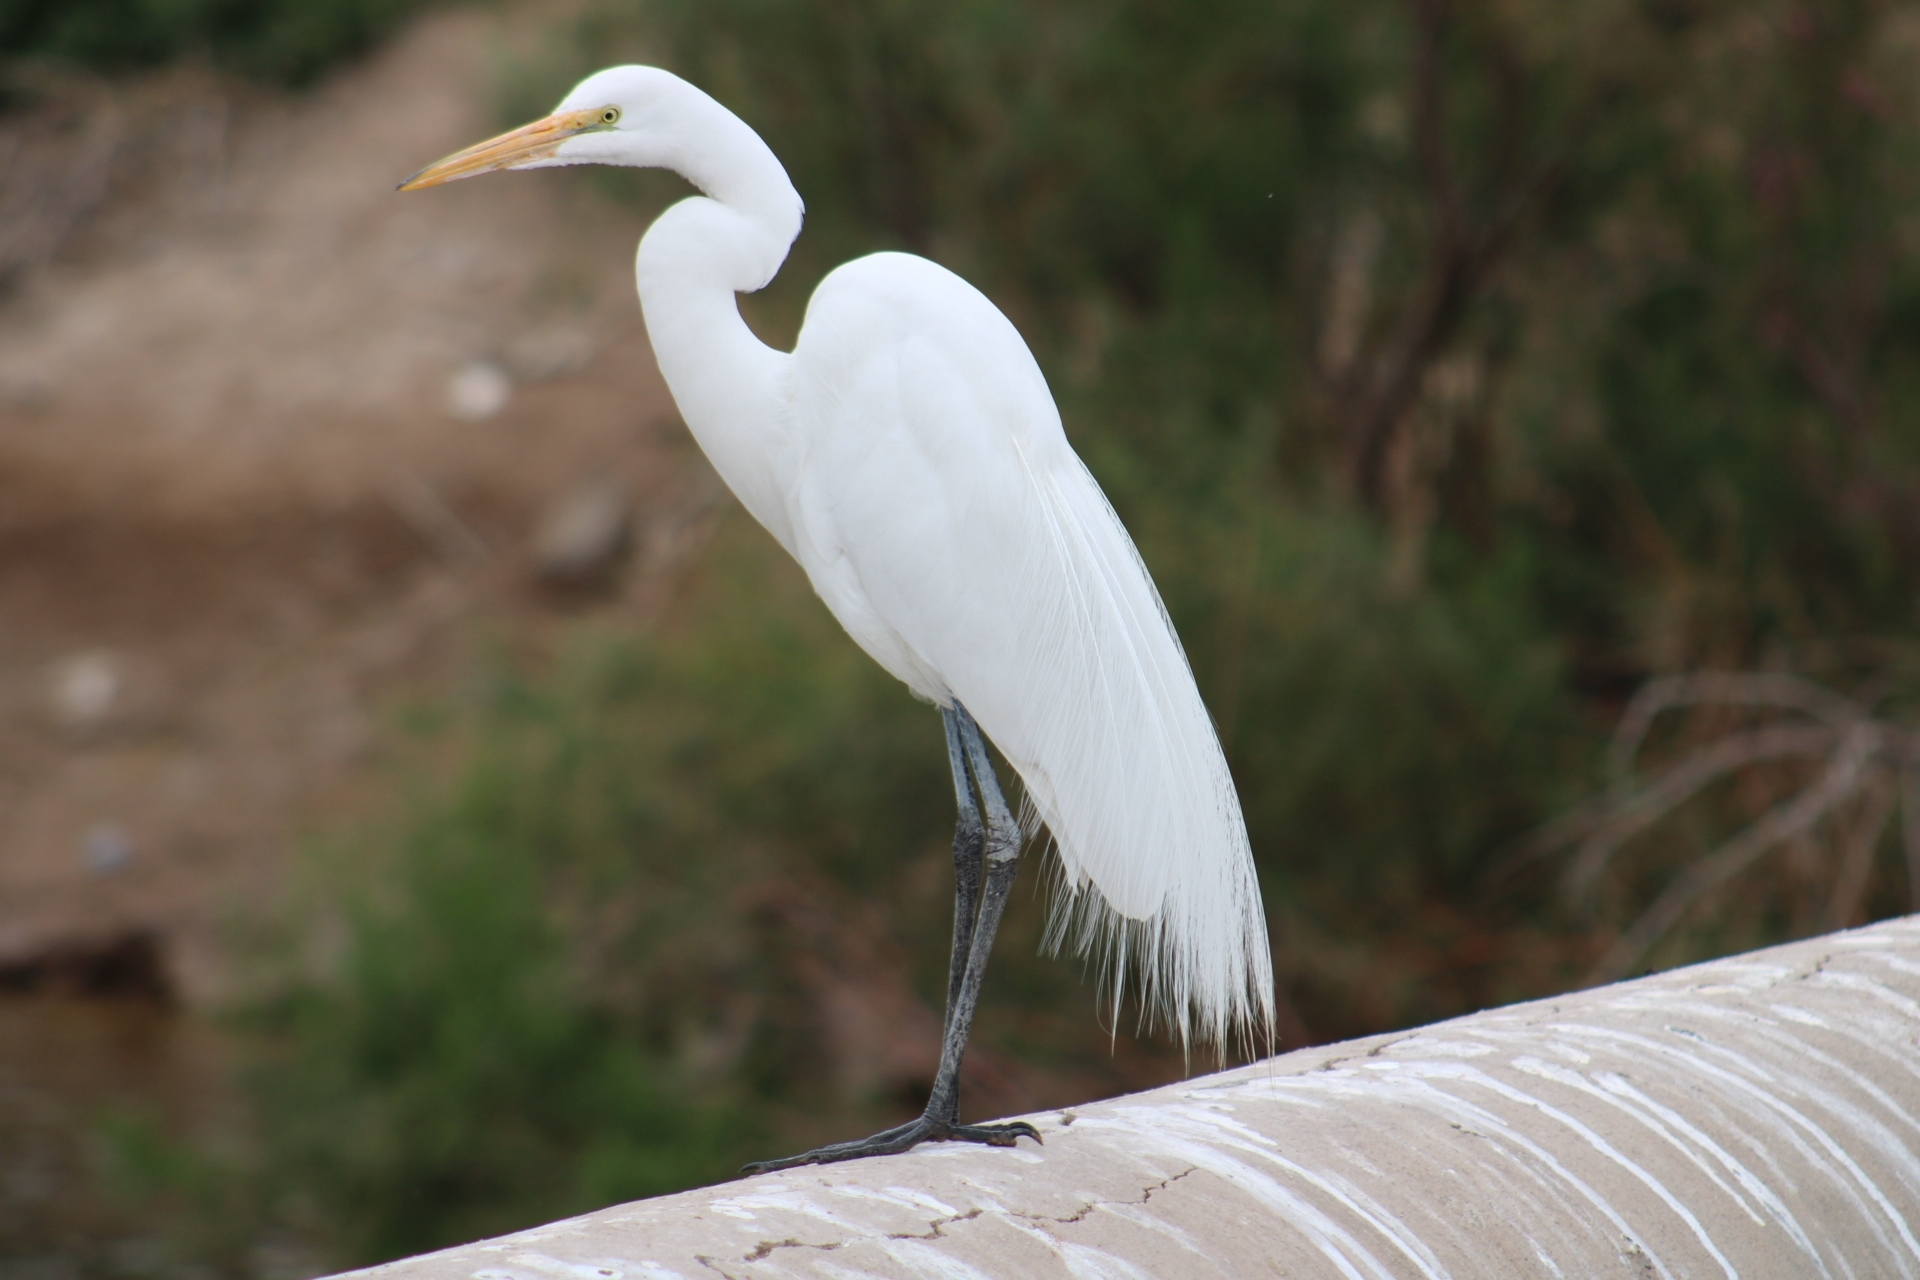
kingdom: Animalia
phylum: Chordata
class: Aves
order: Pelecaniformes
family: Ardeidae
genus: Ardea
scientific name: Ardea alba
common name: Great egret
